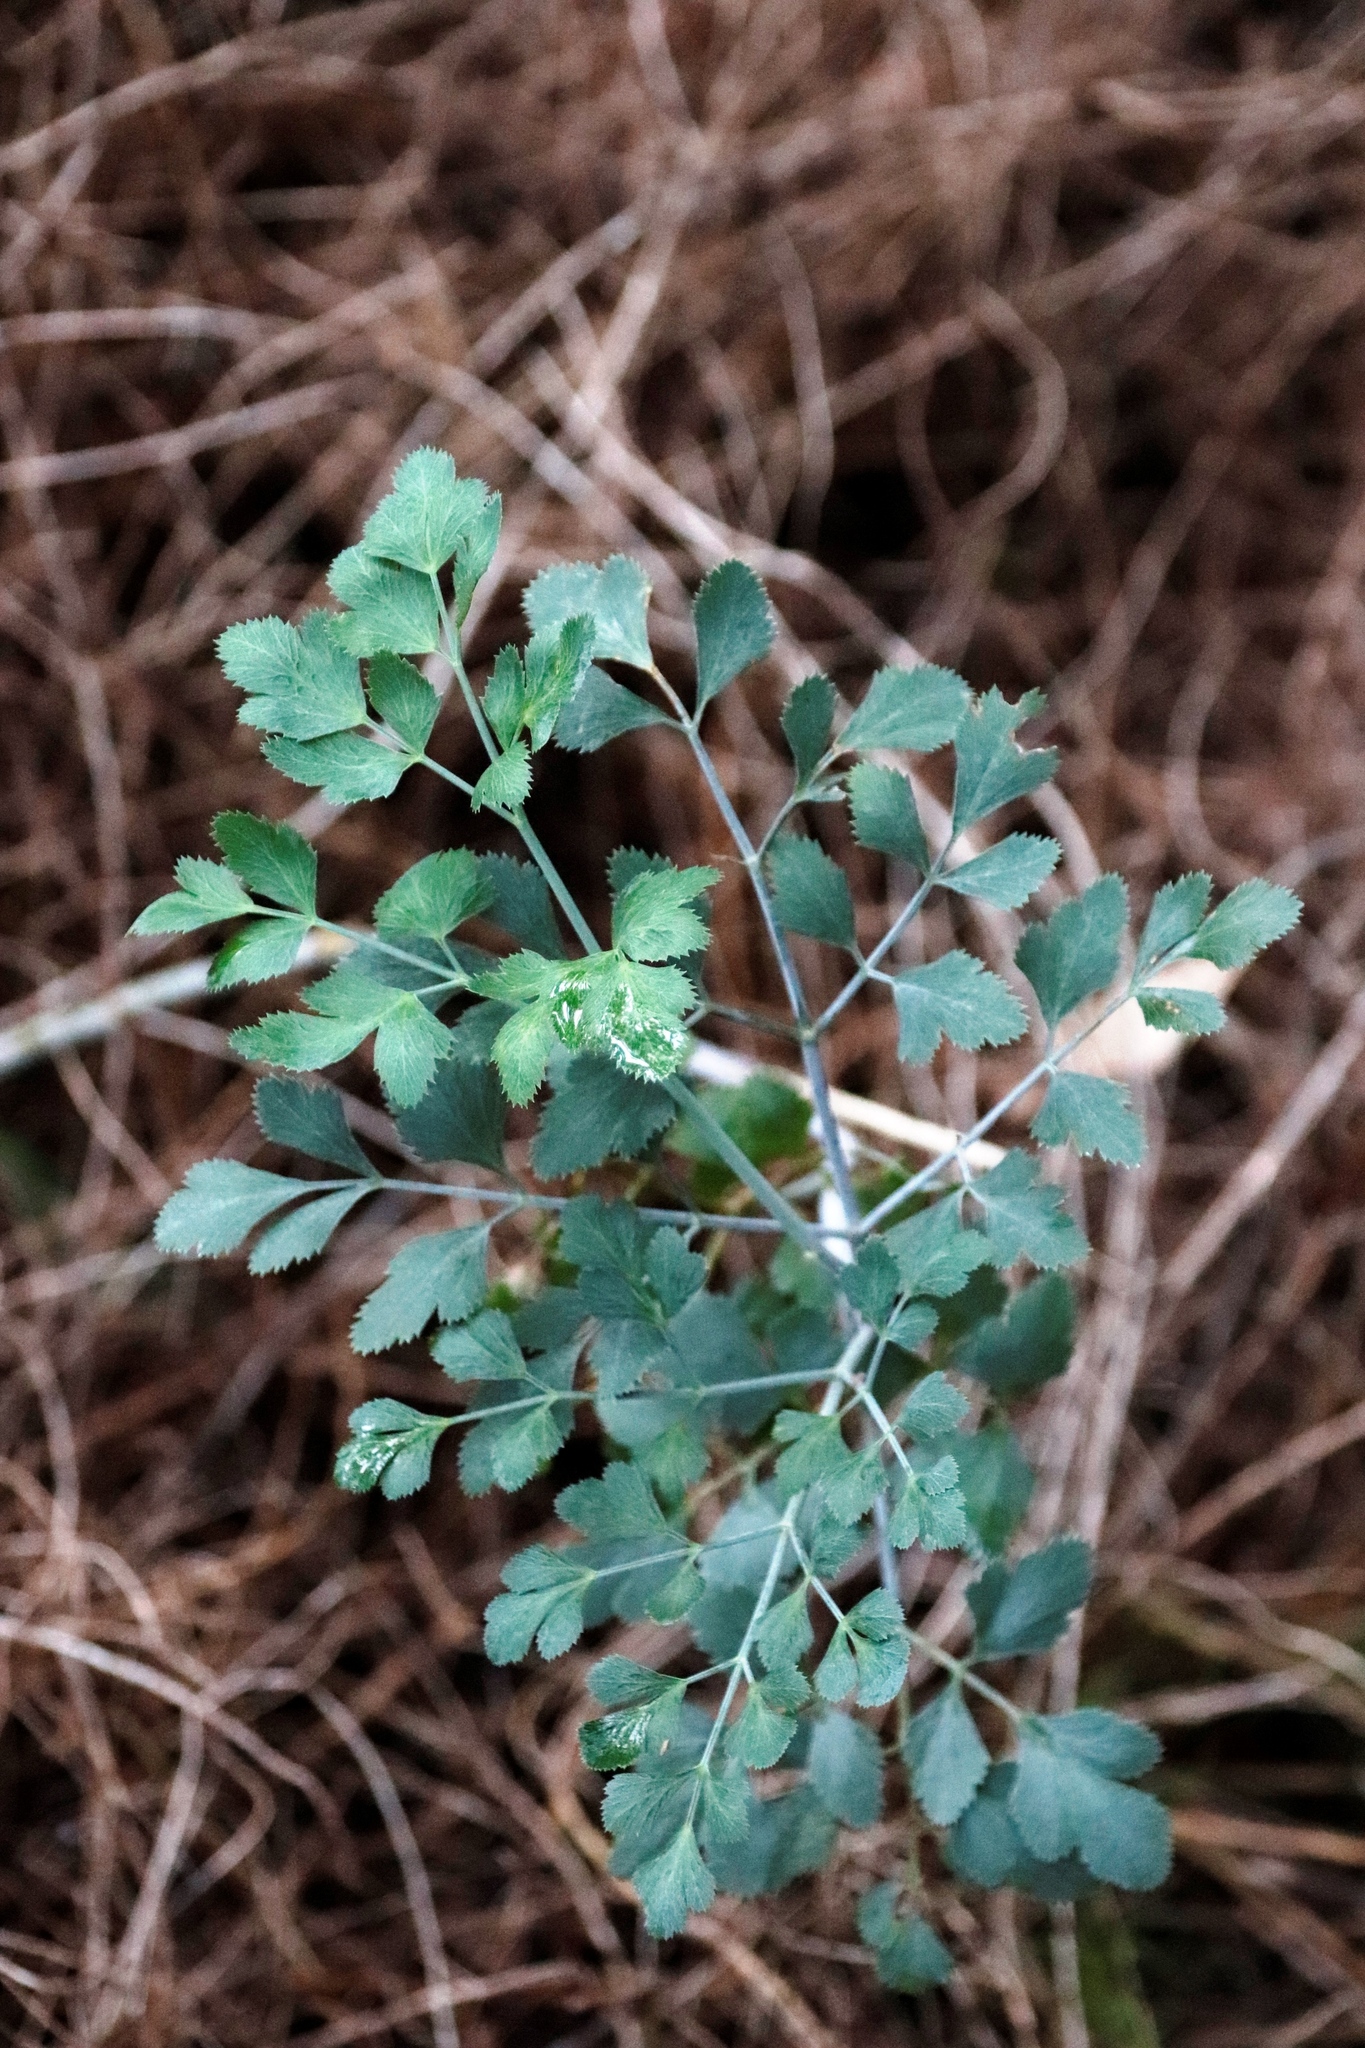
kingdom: Plantae
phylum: Tracheophyta
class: Magnoliopsida
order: Apiales
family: Apiaceae
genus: Notobubon
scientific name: Notobubon galbanum
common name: Blisterbush
